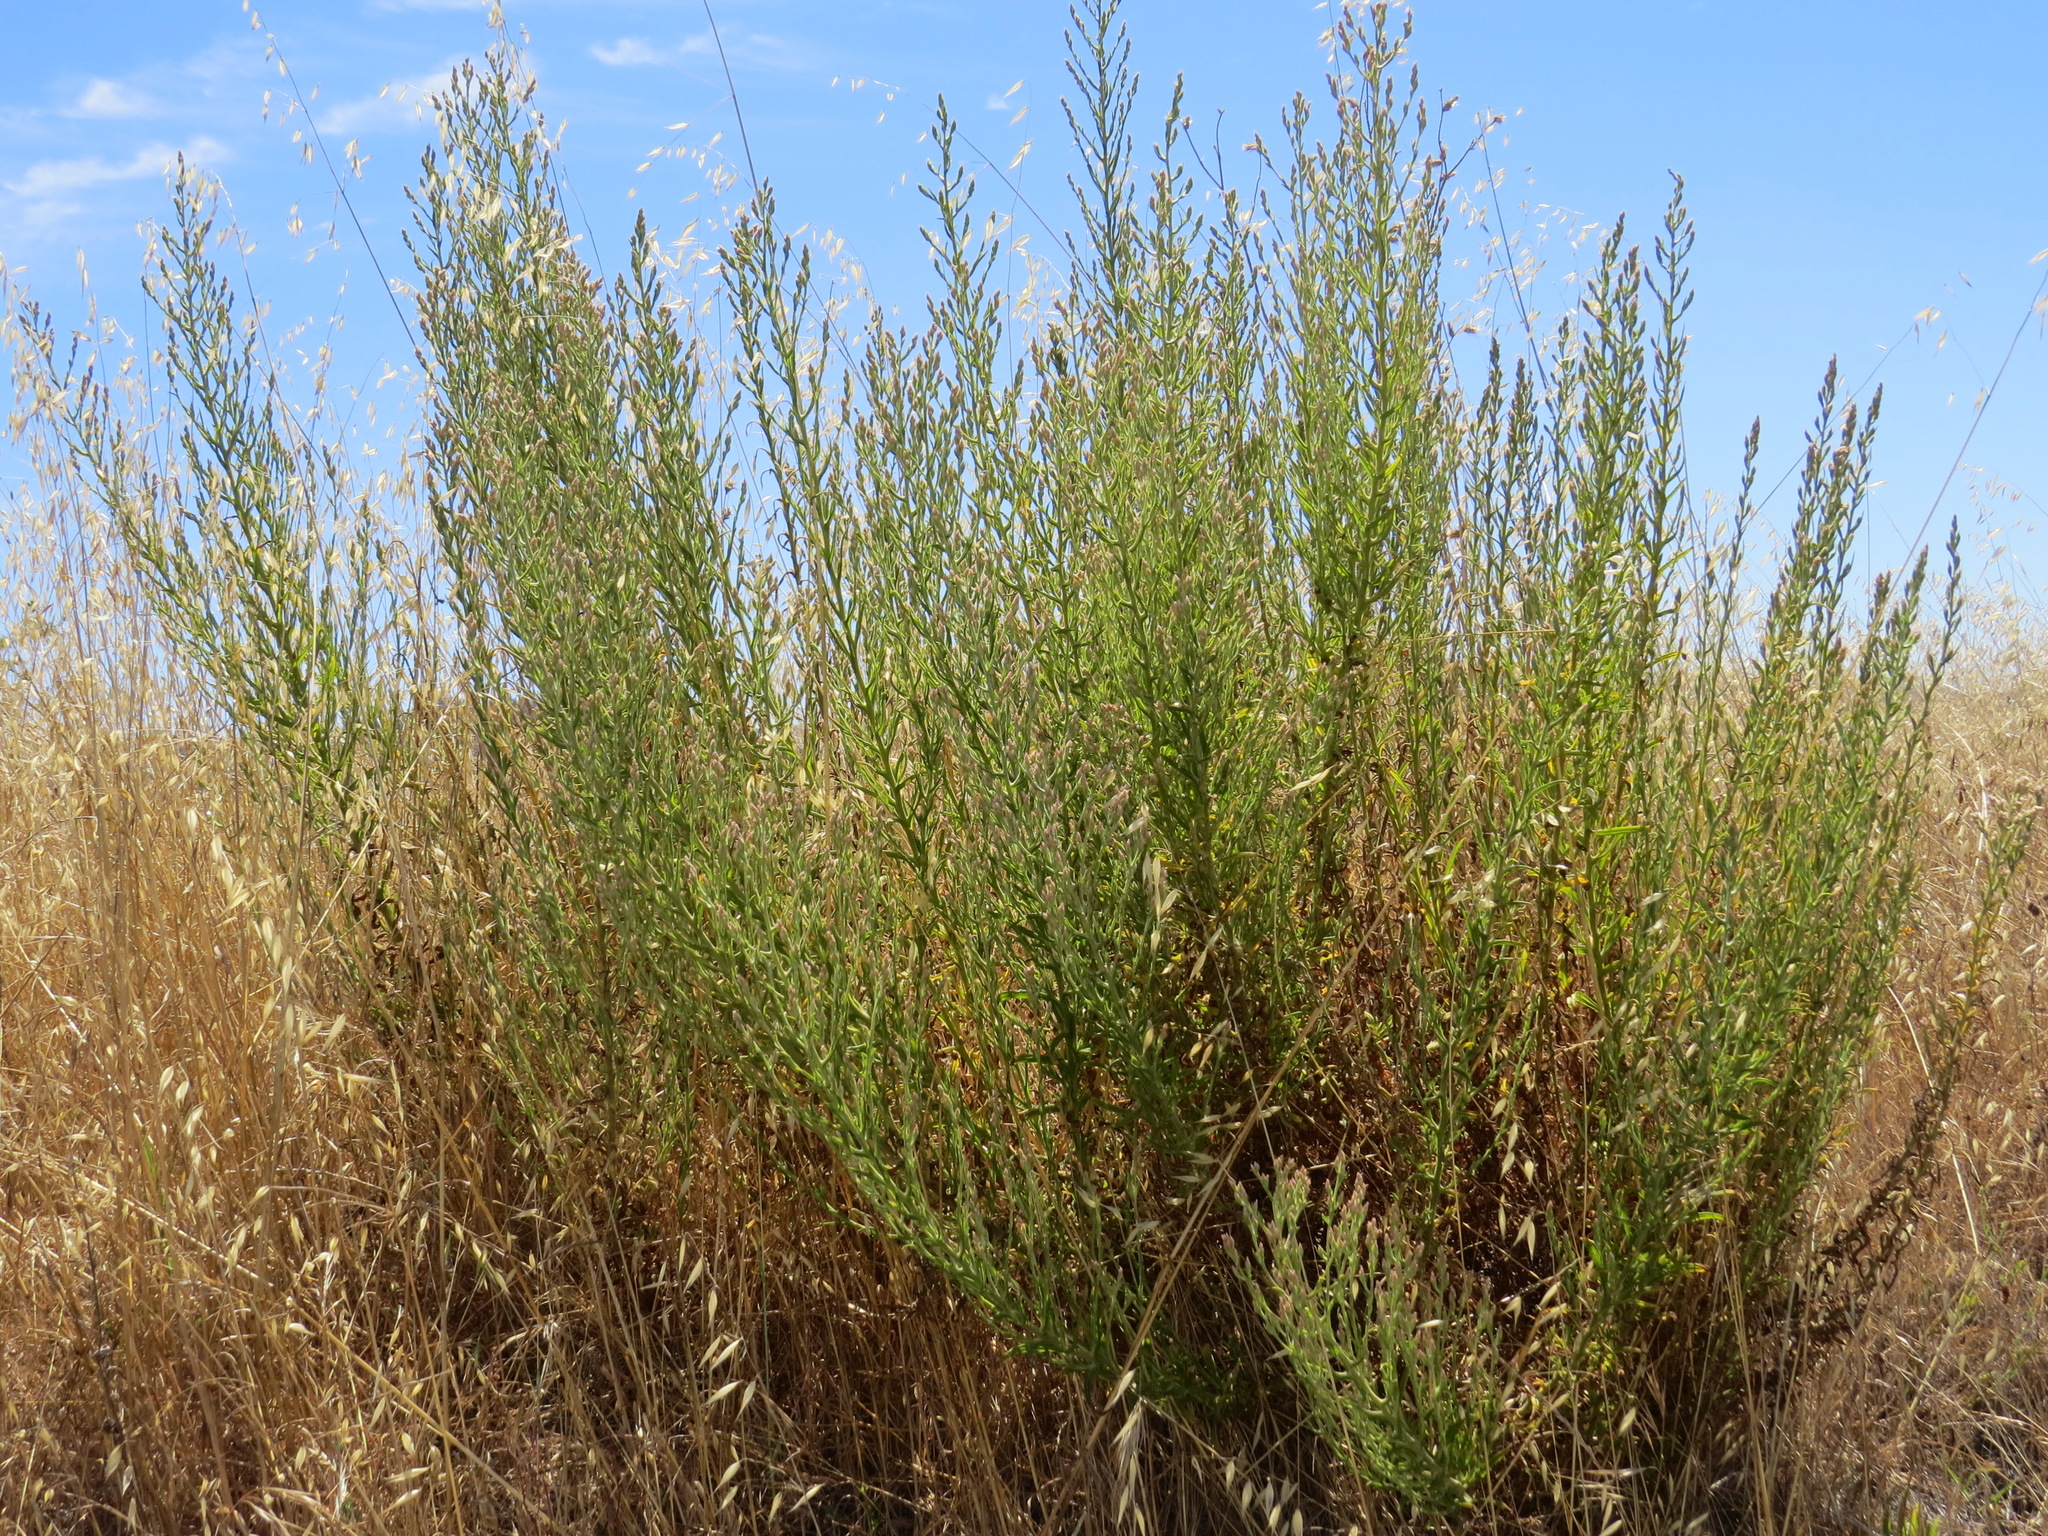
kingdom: Plantae
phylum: Tracheophyta
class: Magnoliopsida
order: Asterales
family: Asteraceae
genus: Pseudognaphalium
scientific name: Pseudognaphalium ramosissimum
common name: Pink rabbit-tobacco
